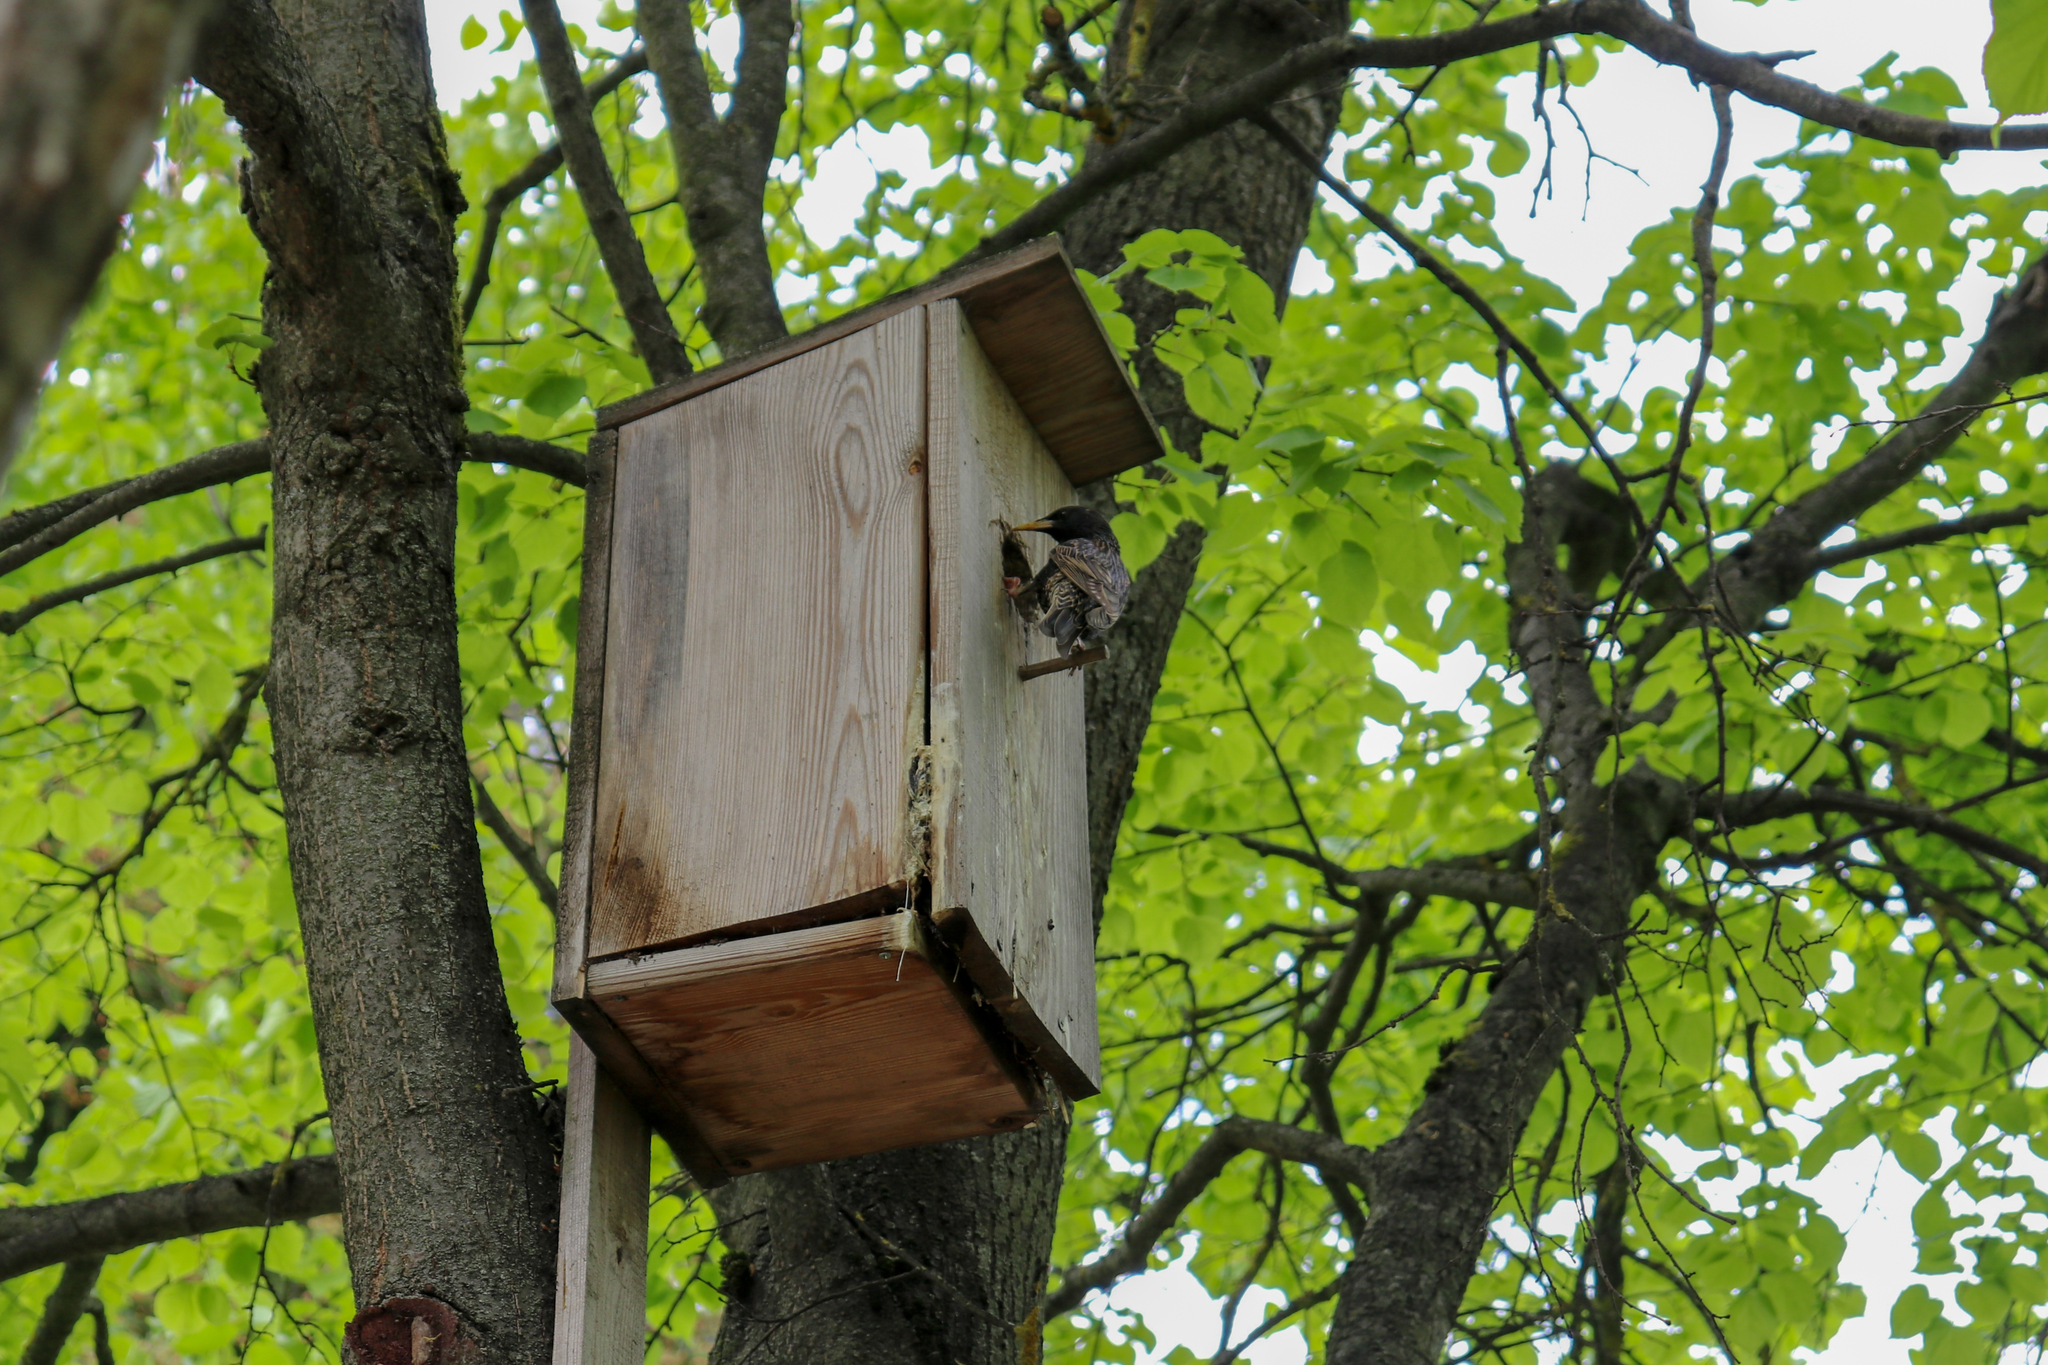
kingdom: Animalia
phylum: Chordata
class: Aves
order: Passeriformes
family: Sturnidae
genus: Sturnus
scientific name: Sturnus vulgaris
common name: Common starling
